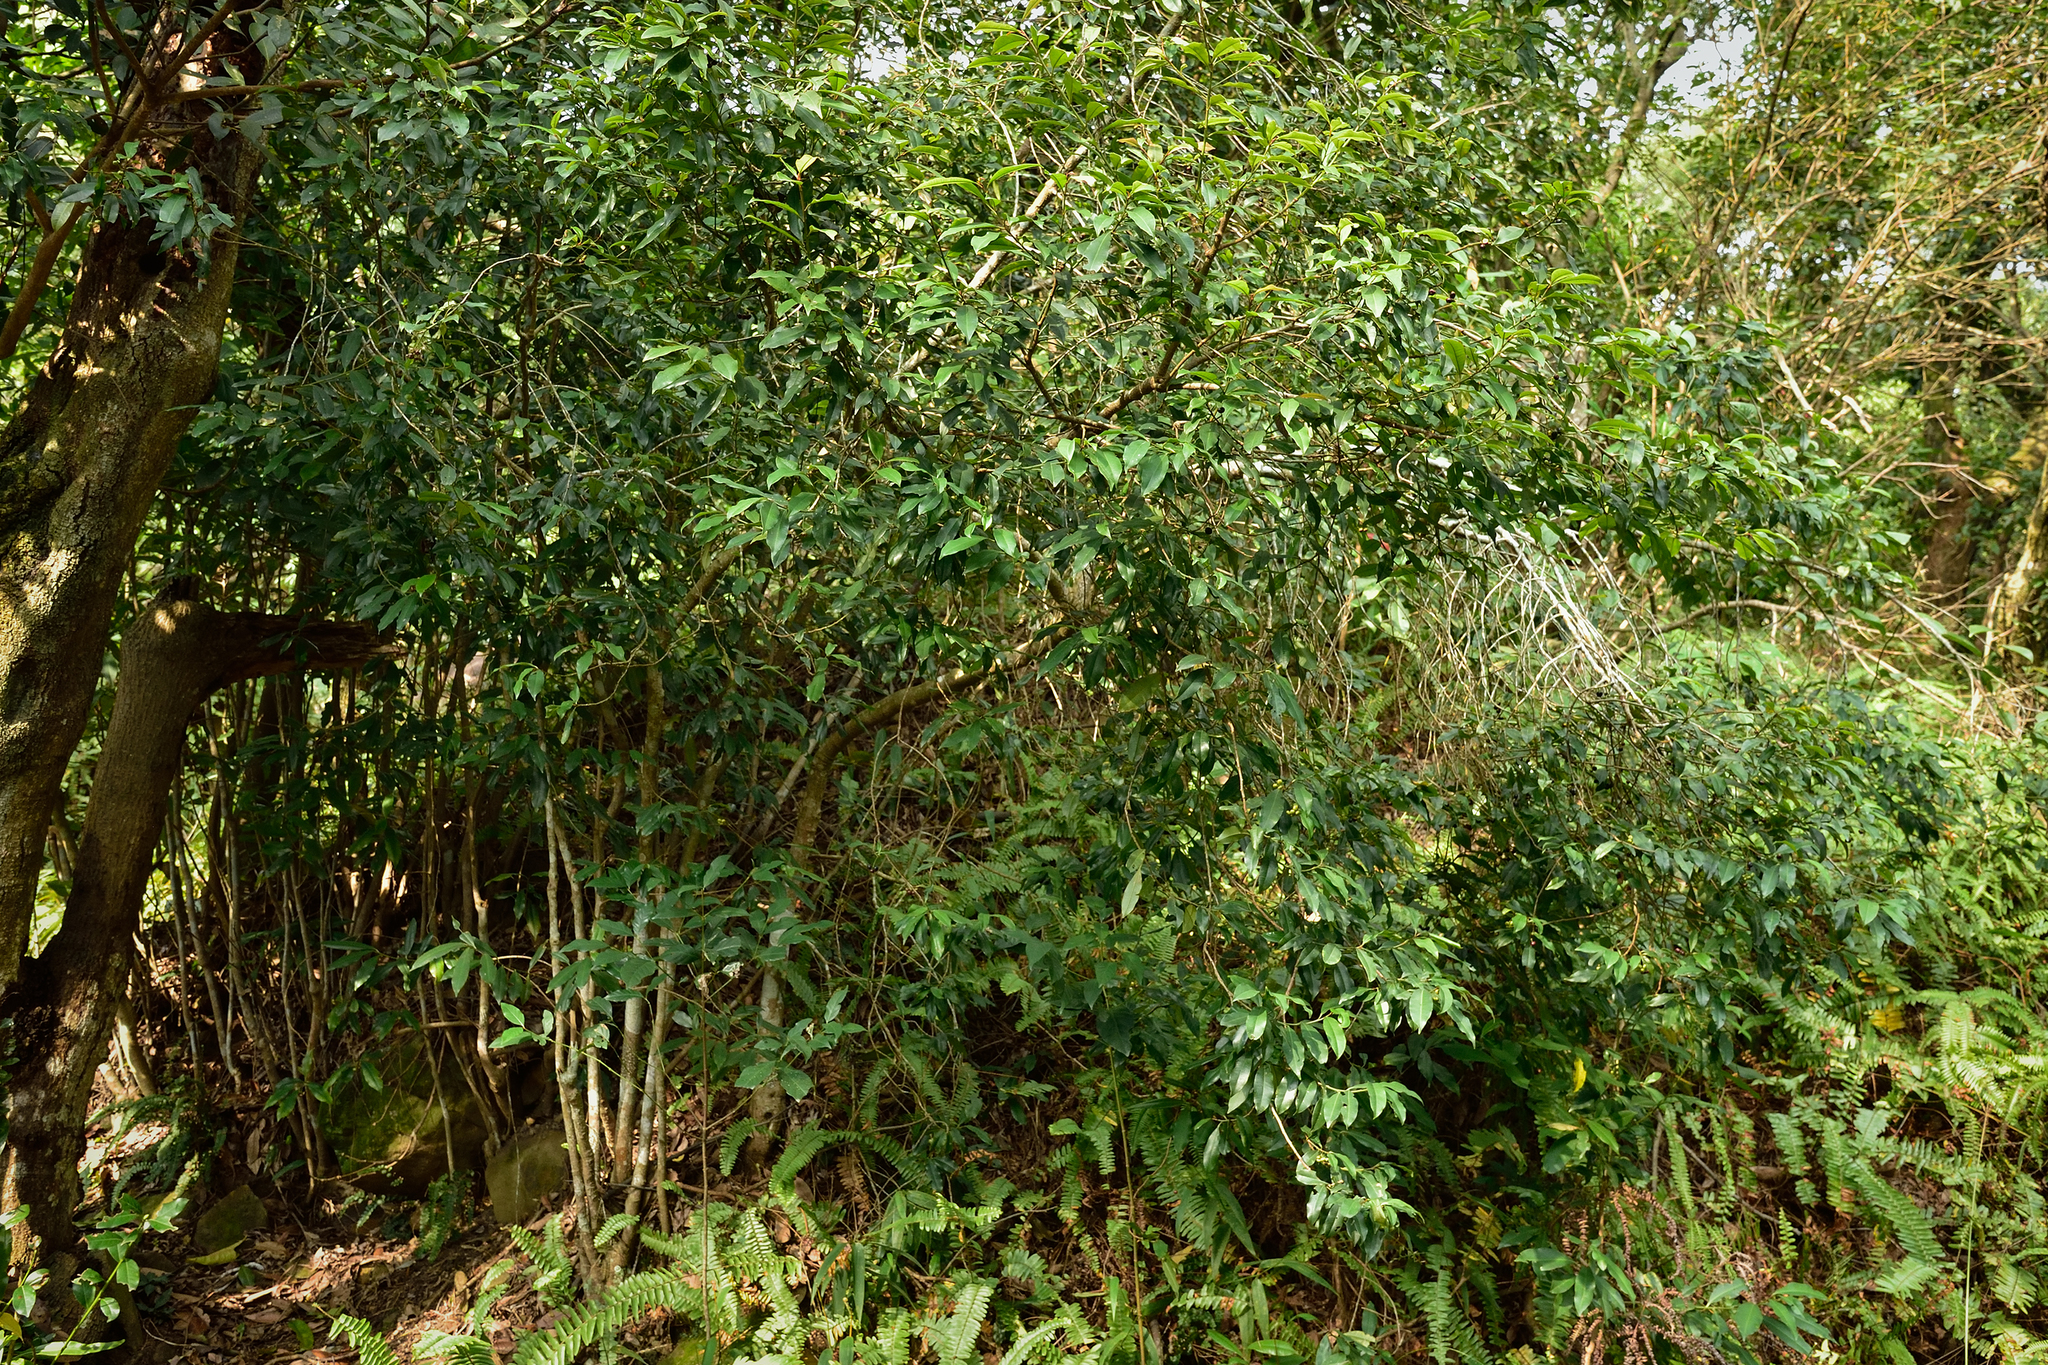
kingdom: Plantae
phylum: Tracheophyta
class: Magnoliopsida
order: Ericales
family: Primulaceae
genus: Ardisia
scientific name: Ardisia quinquegona
